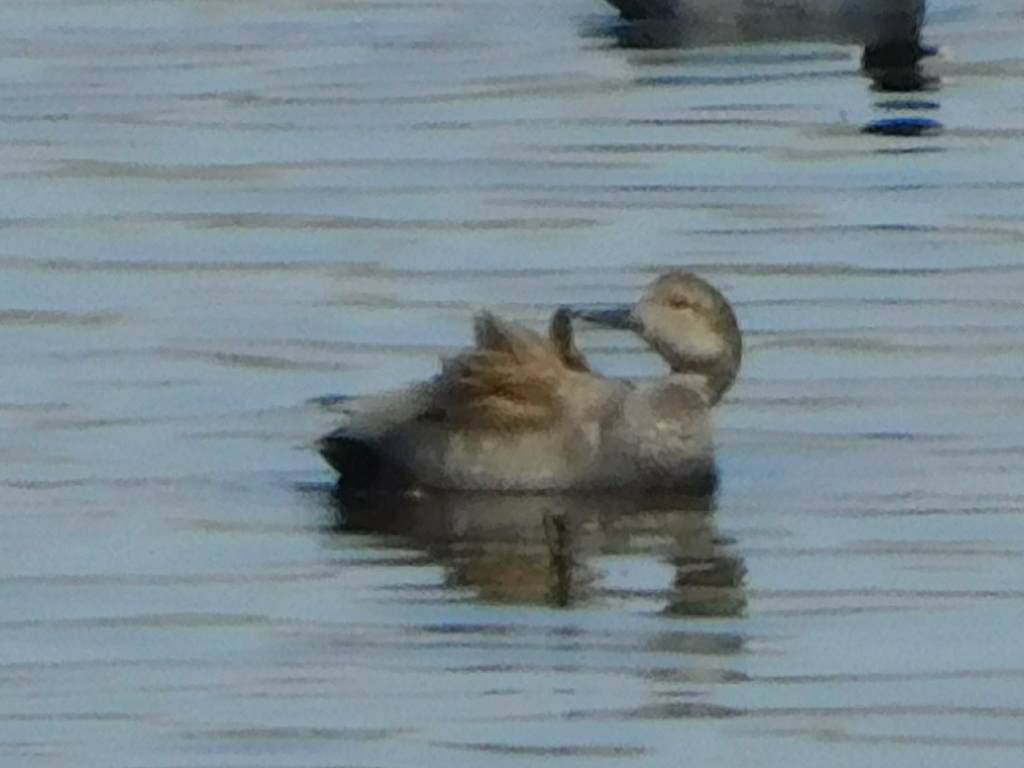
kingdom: Animalia
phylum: Chordata
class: Aves
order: Anseriformes
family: Anatidae
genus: Mareca
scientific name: Mareca strepera
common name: Gadwall
